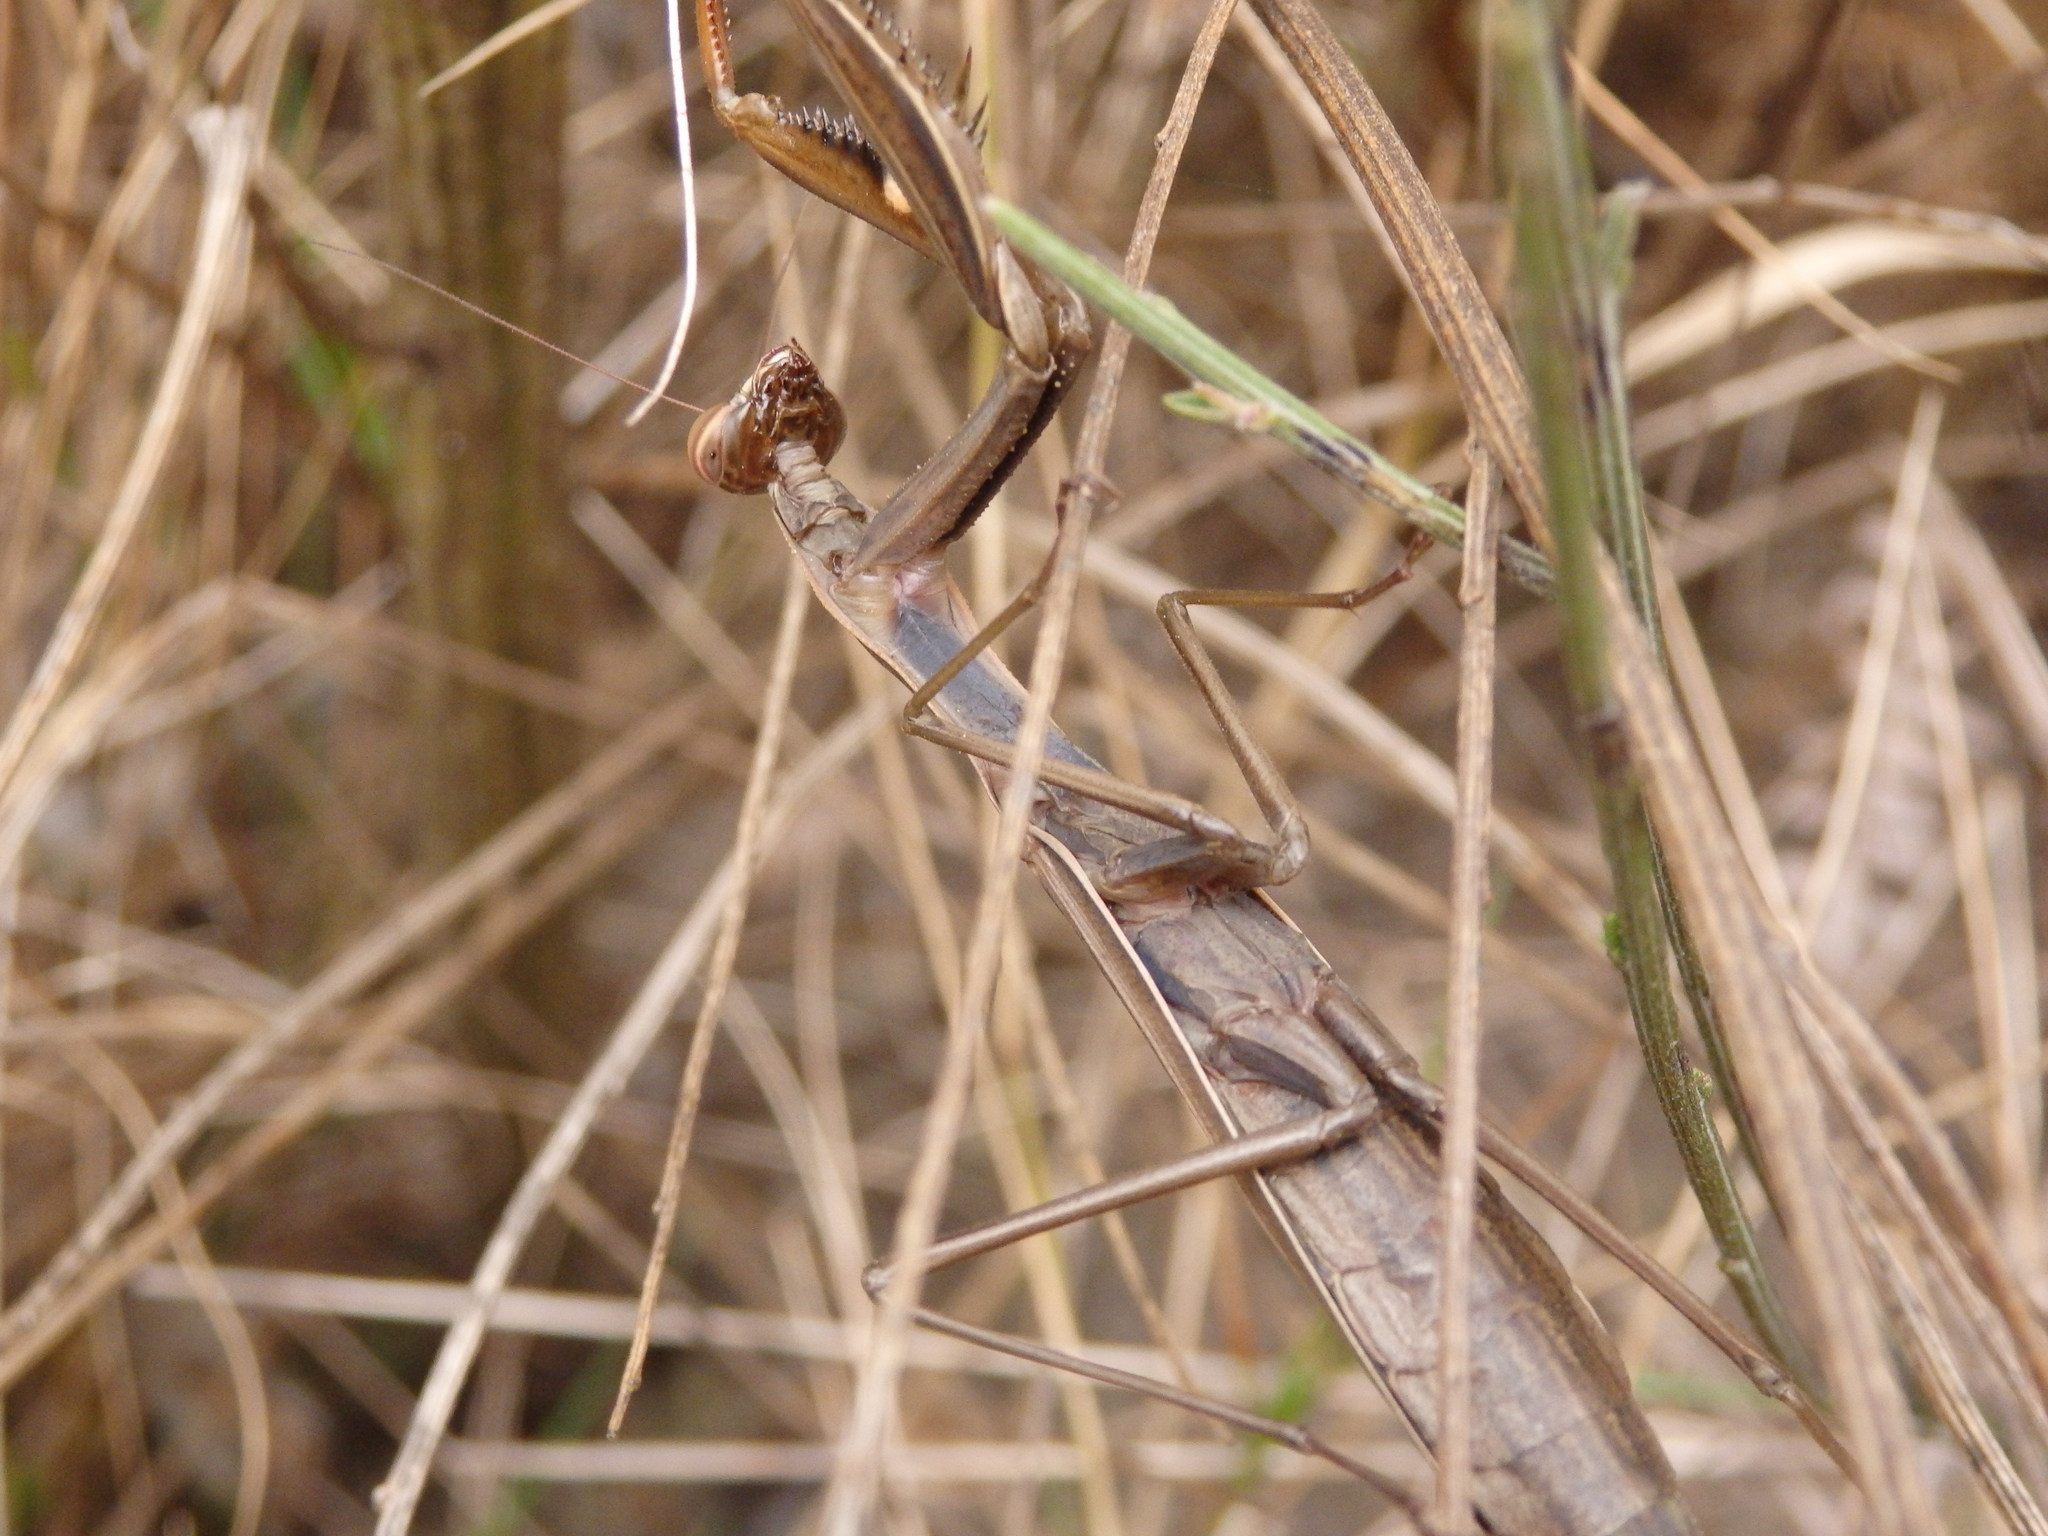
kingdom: Animalia
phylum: Arthropoda
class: Insecta
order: Mantodea
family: Mantidae
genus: Mantis
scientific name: Mantis religiosa
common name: Praying mantis
